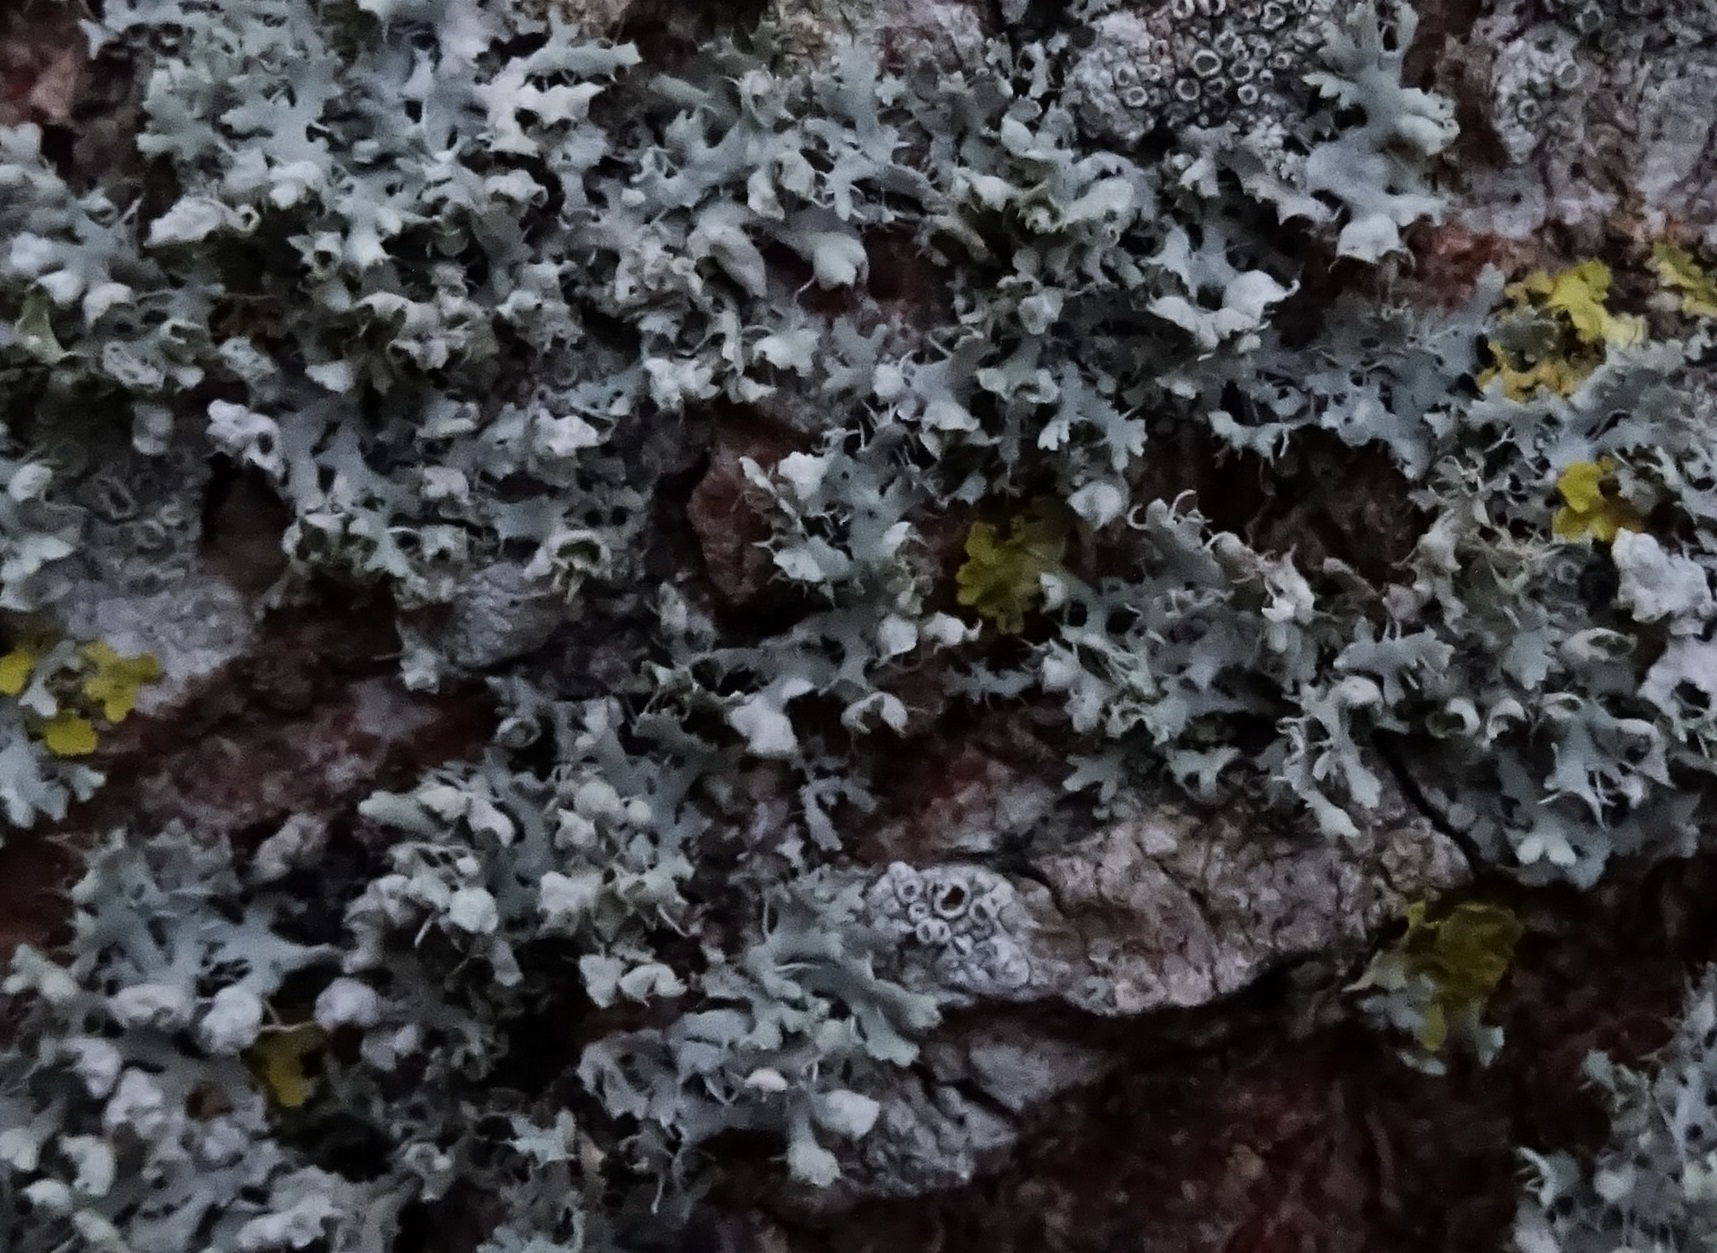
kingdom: Fungi
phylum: Ascomycota
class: Lecanoromycetes
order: Caliciales
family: Physciaceae
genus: Physcia
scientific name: Physcia adscendens
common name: Hooded rosette lichen
